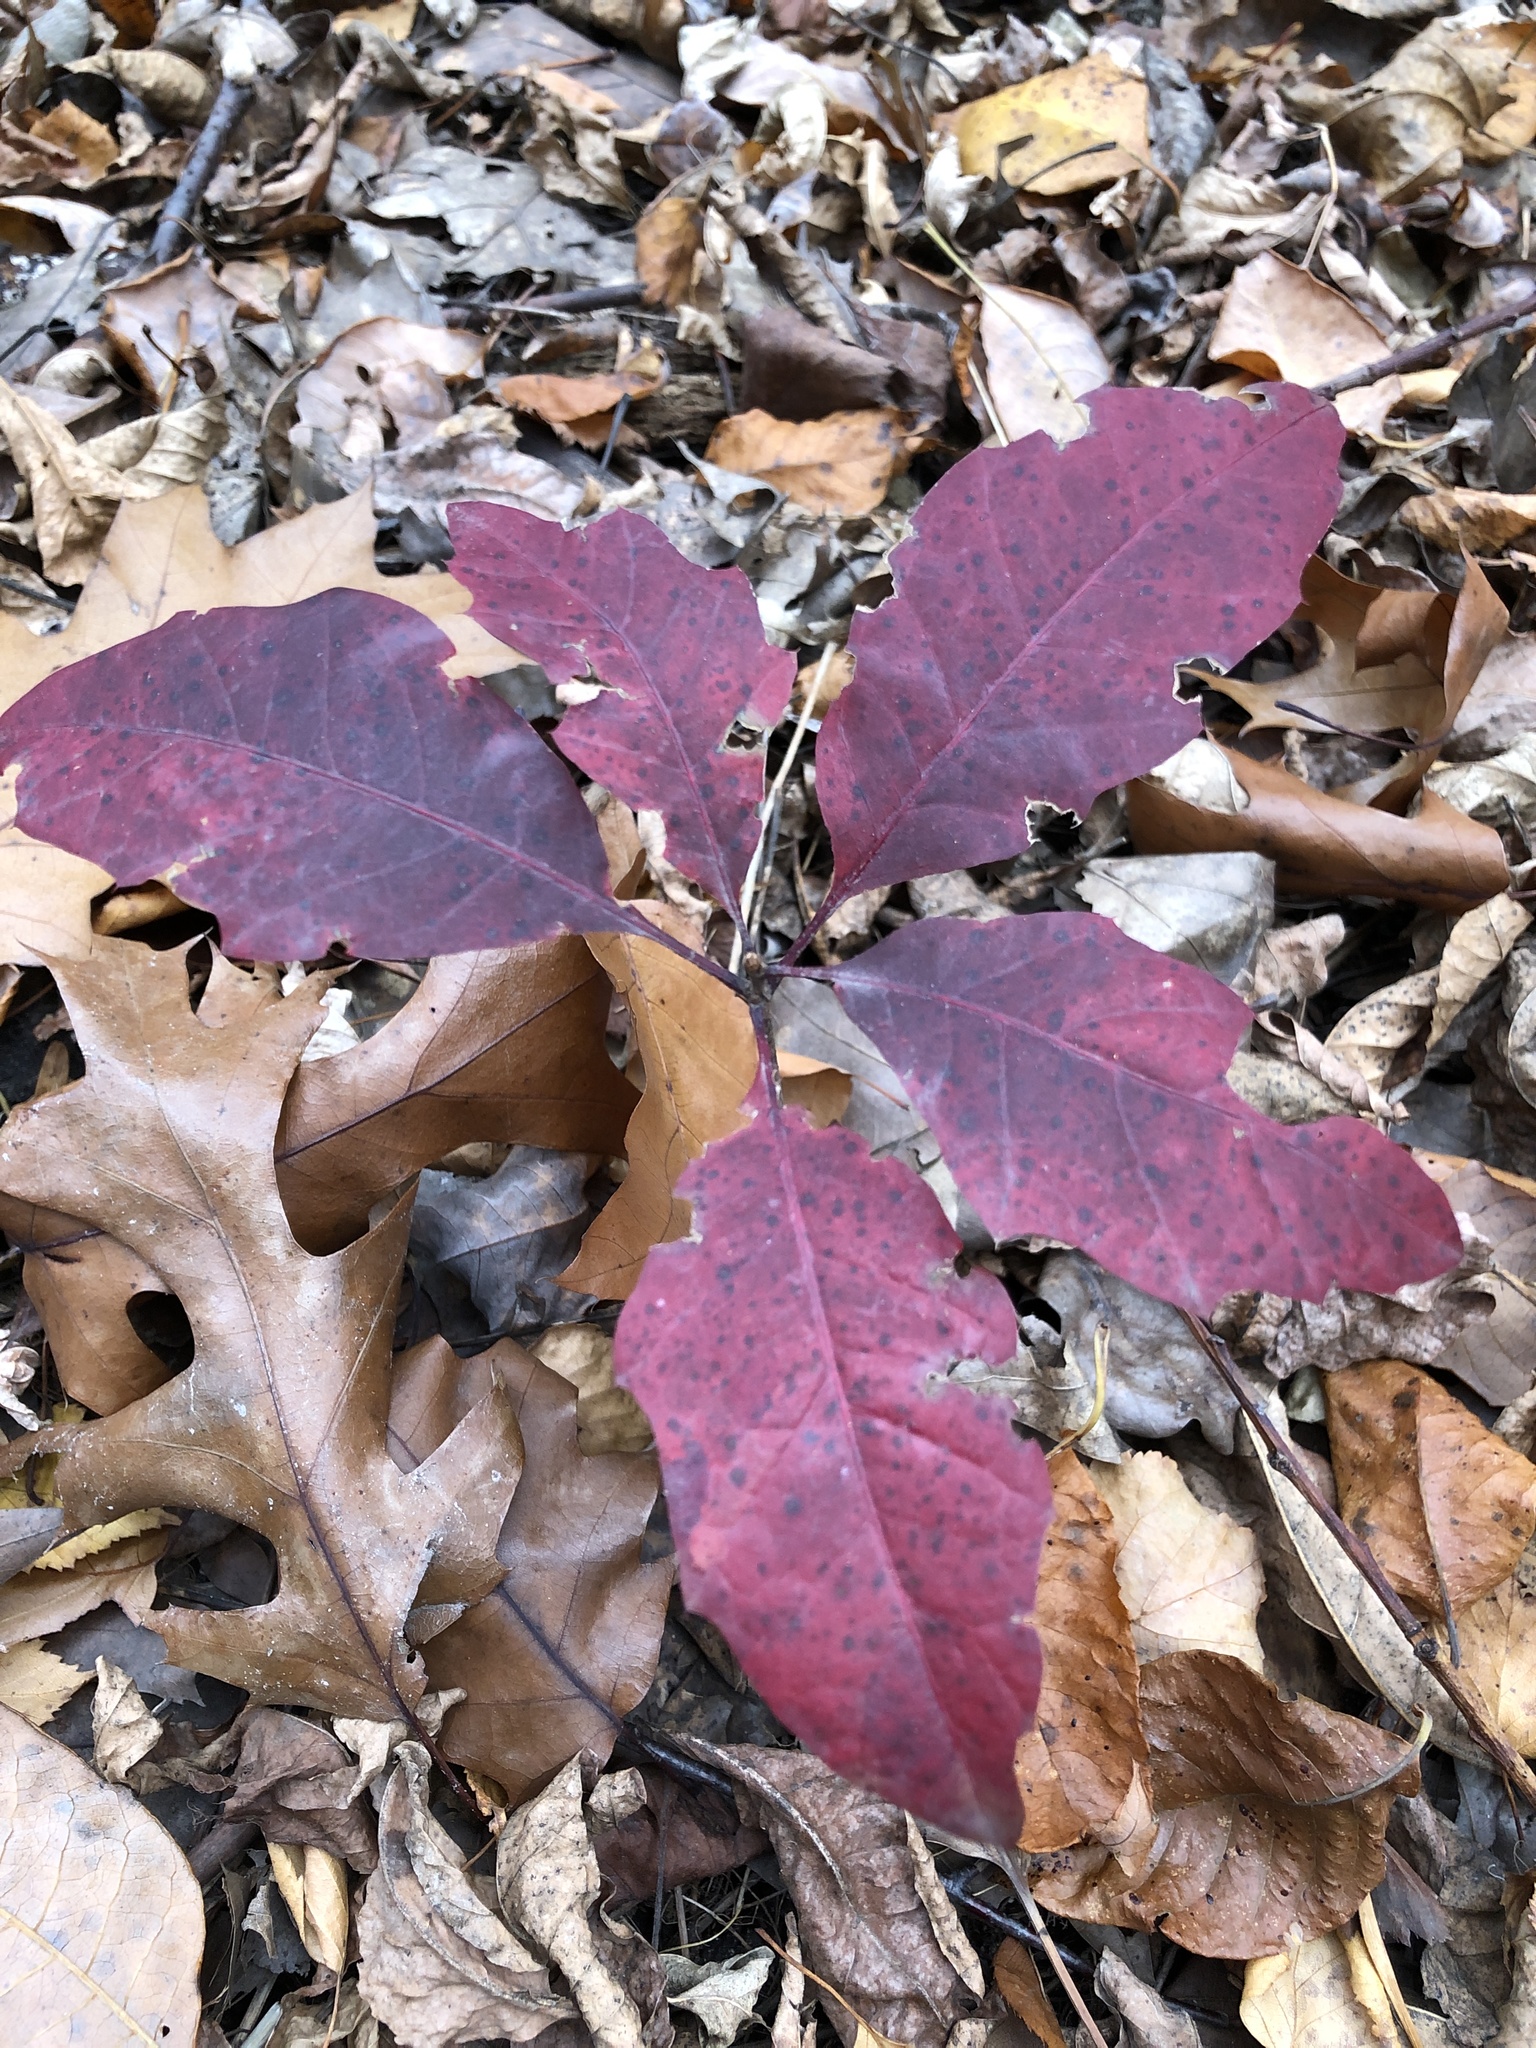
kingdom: Plantae
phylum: Tracheophyta
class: Magnoliopsida
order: Fagales
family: Fagaceae
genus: Quercus
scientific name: Quercus rubra
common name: Red oak
